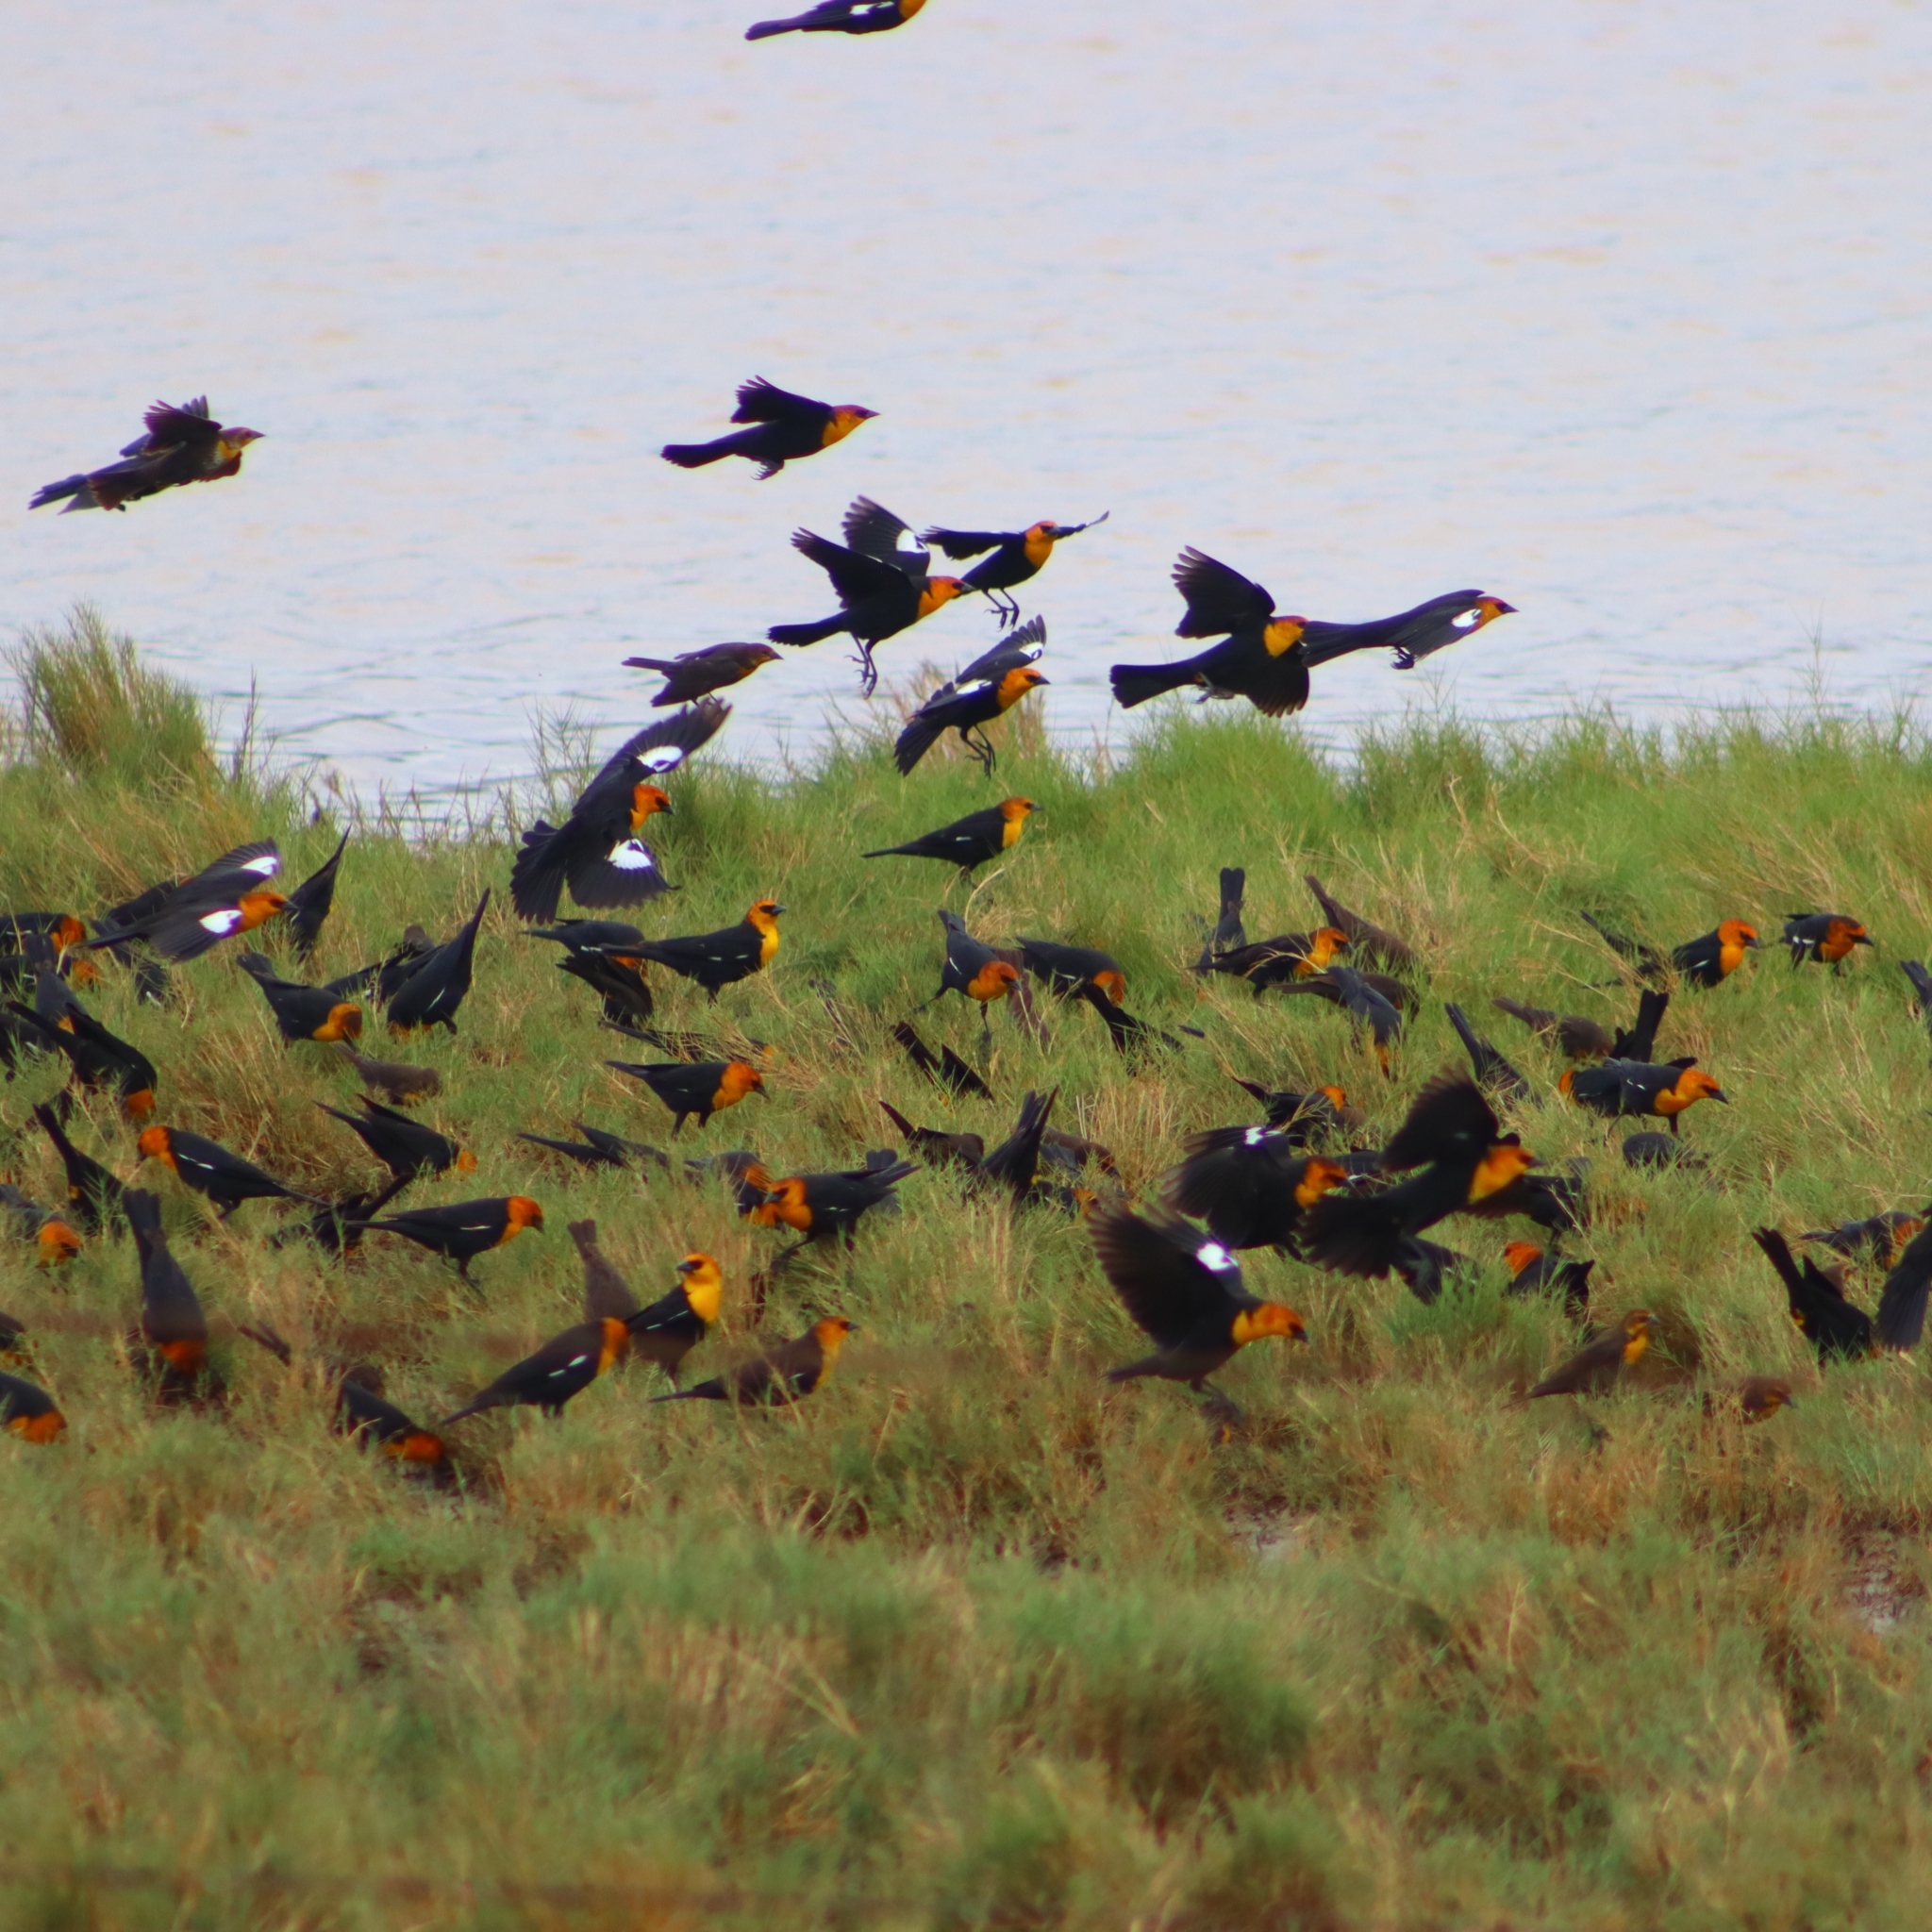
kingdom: Animalia
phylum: Chordata
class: Aves
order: Passeriformes
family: Icteridae
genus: Xanthocephalus
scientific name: Xanthocephalus xanthocephalus
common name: Yellow-headed blackbird
